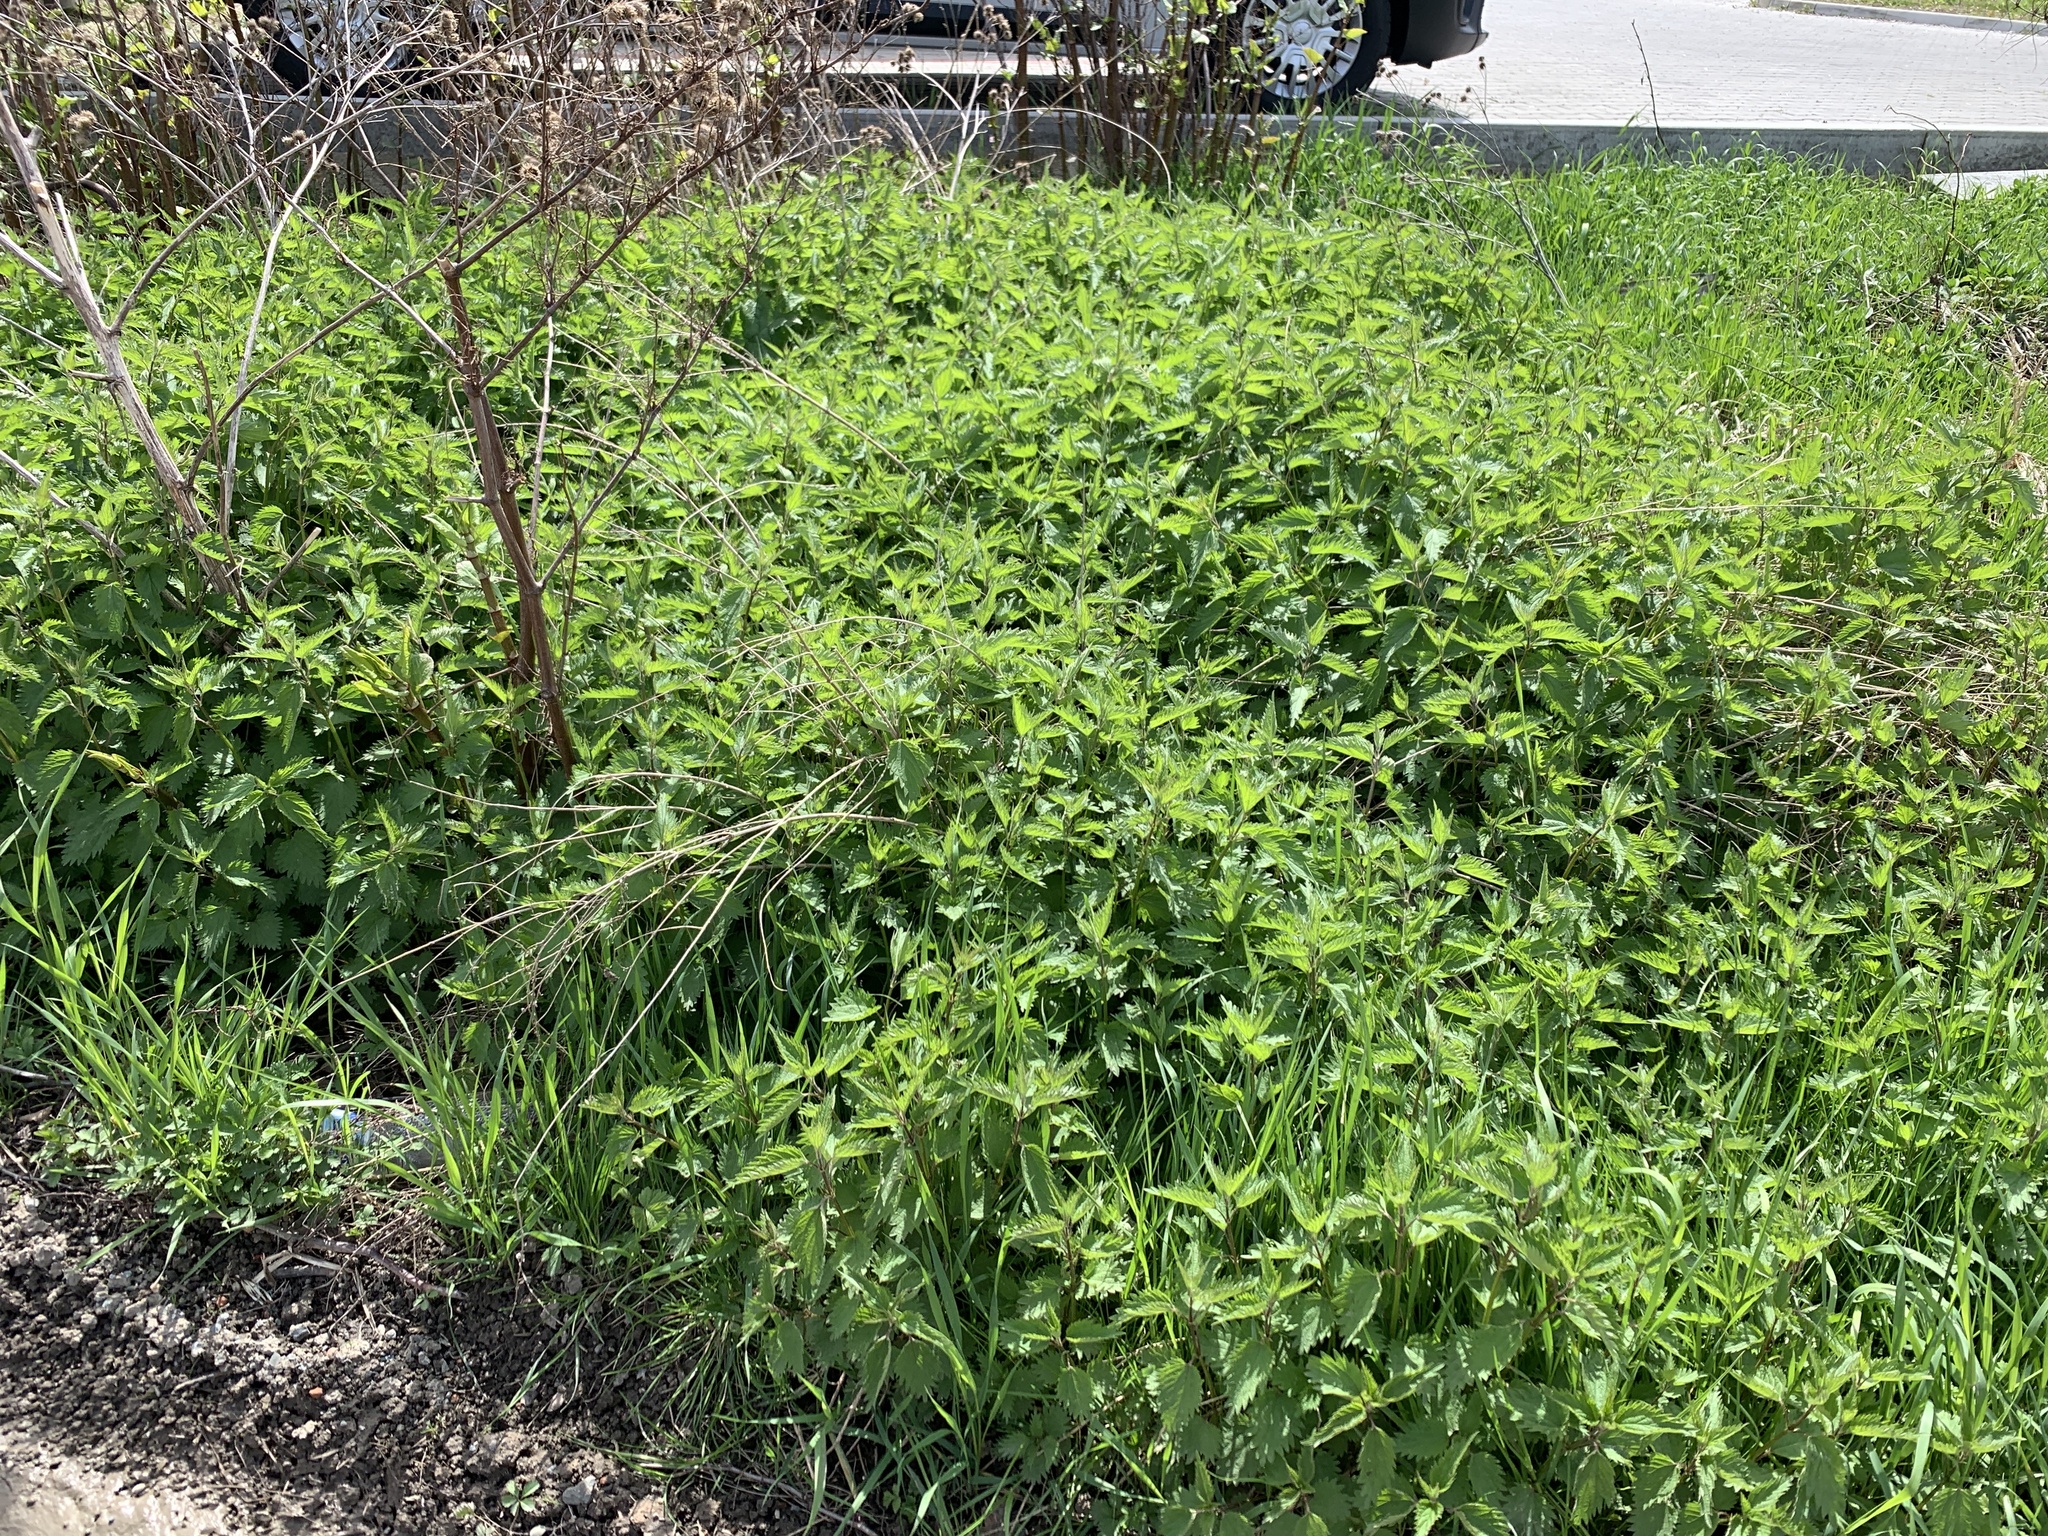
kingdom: Plantae
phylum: Tracheophyta
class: Magnoliopsida
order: Rosales
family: Urticaceae
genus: Urtica
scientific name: Urtica dioica
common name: Common nettle
